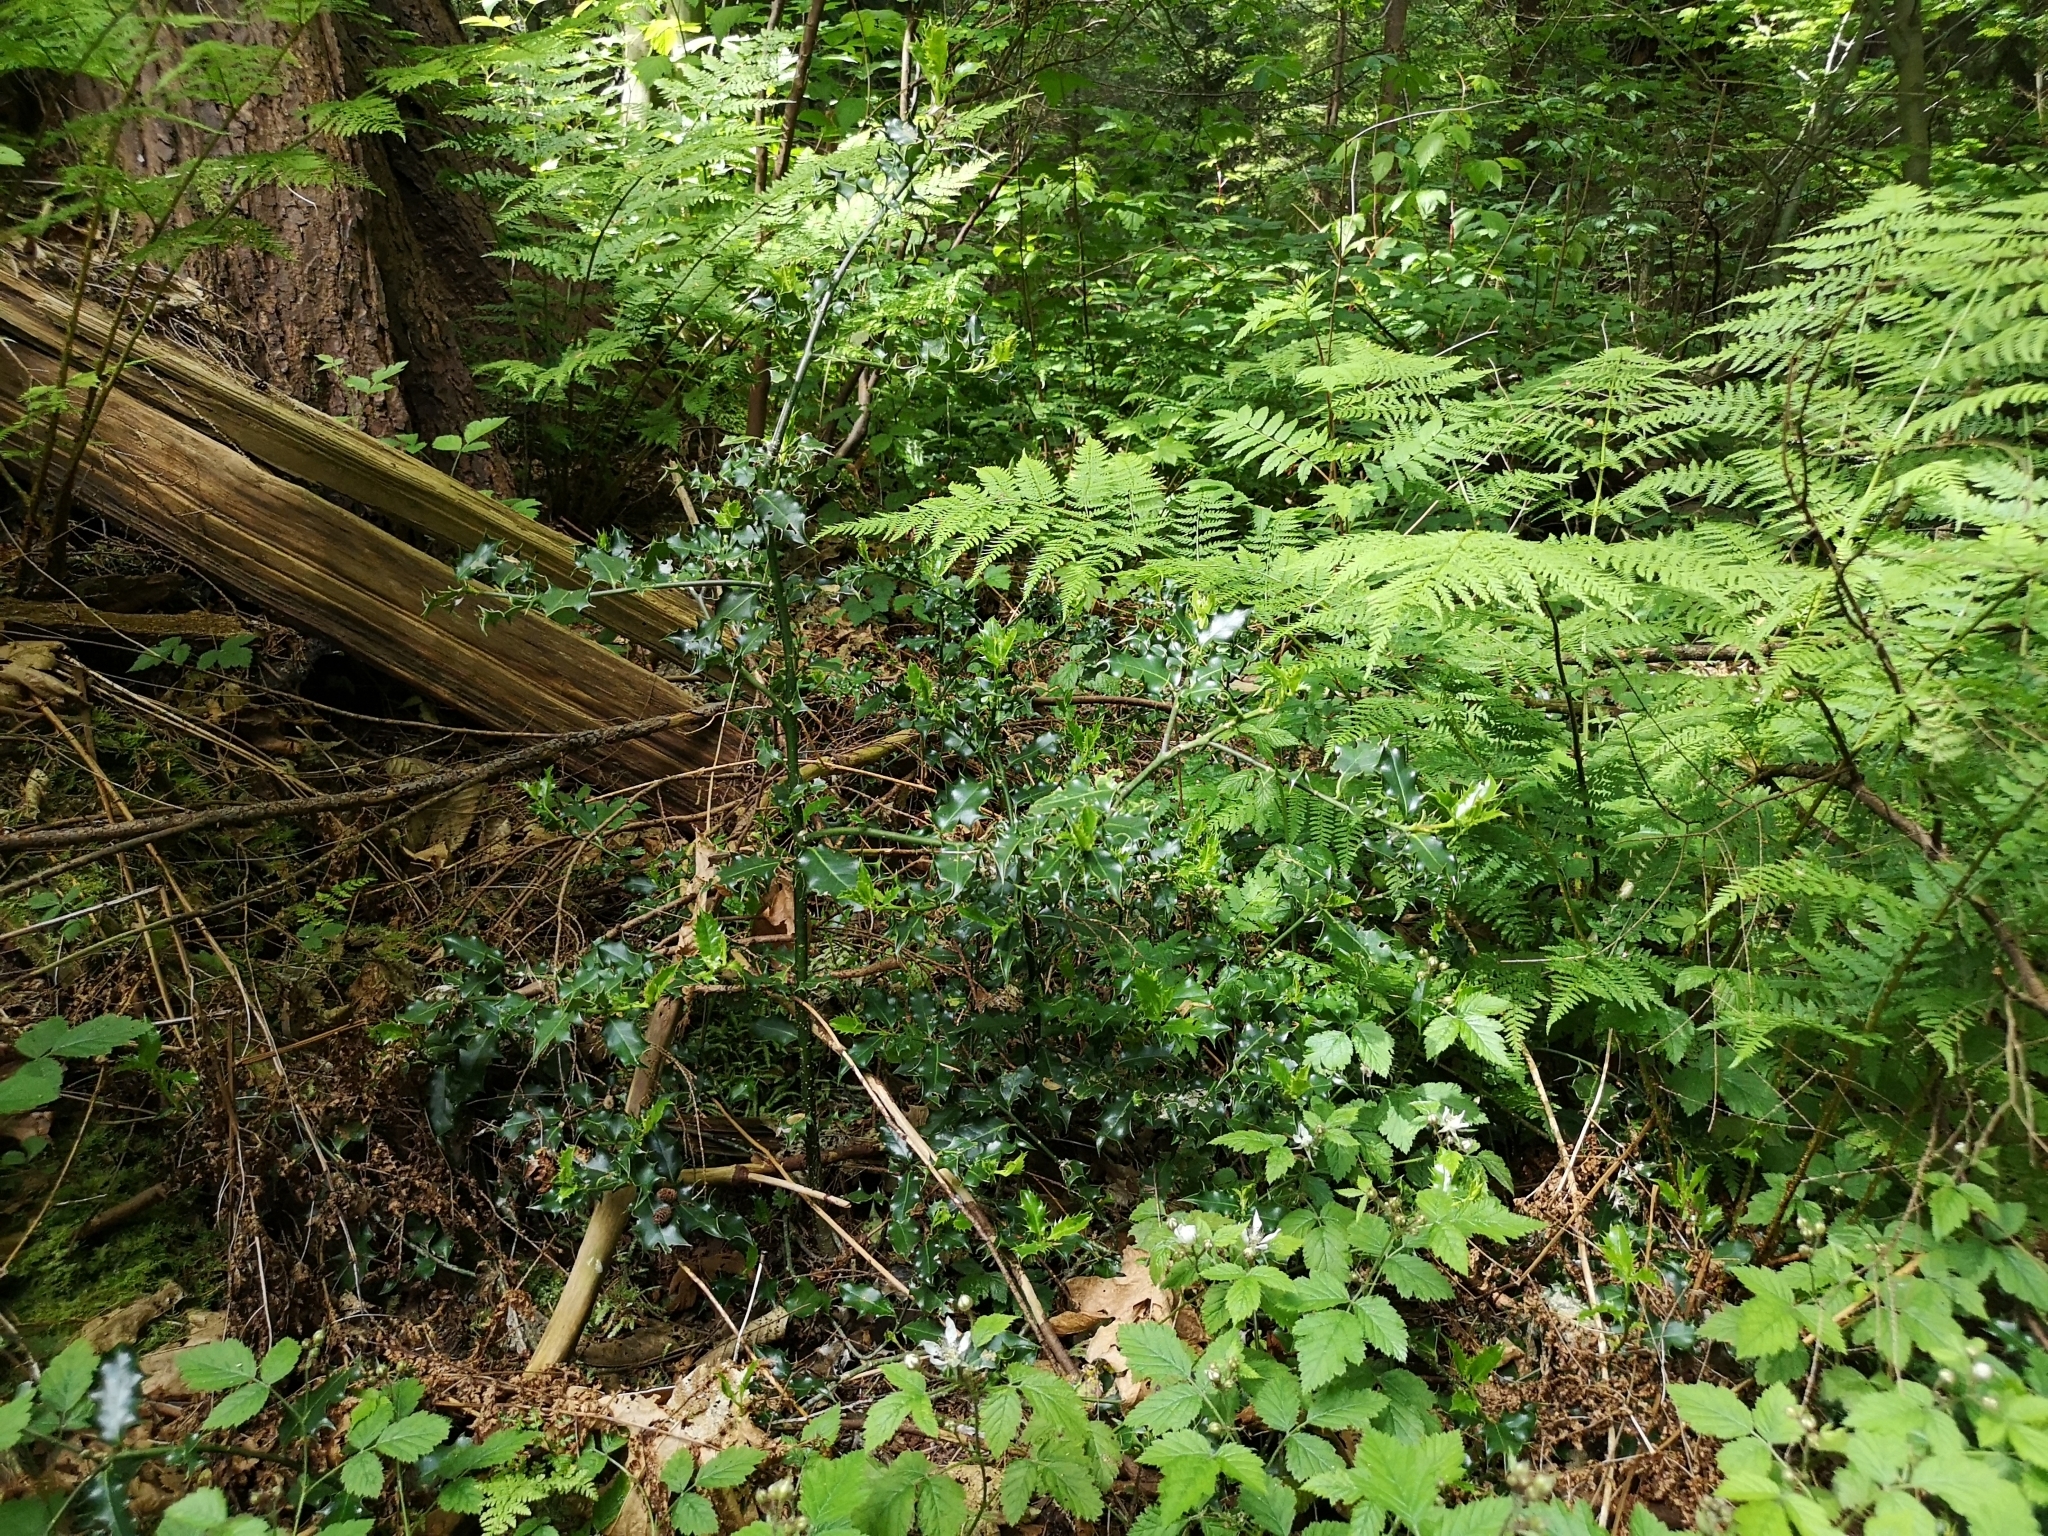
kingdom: Plantae
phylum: Tracheophyta
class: Magnoliopsida
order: Aquifoliales
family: Aquifoliaceae
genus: Ilex
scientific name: Ilex aquifolium
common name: English holly
